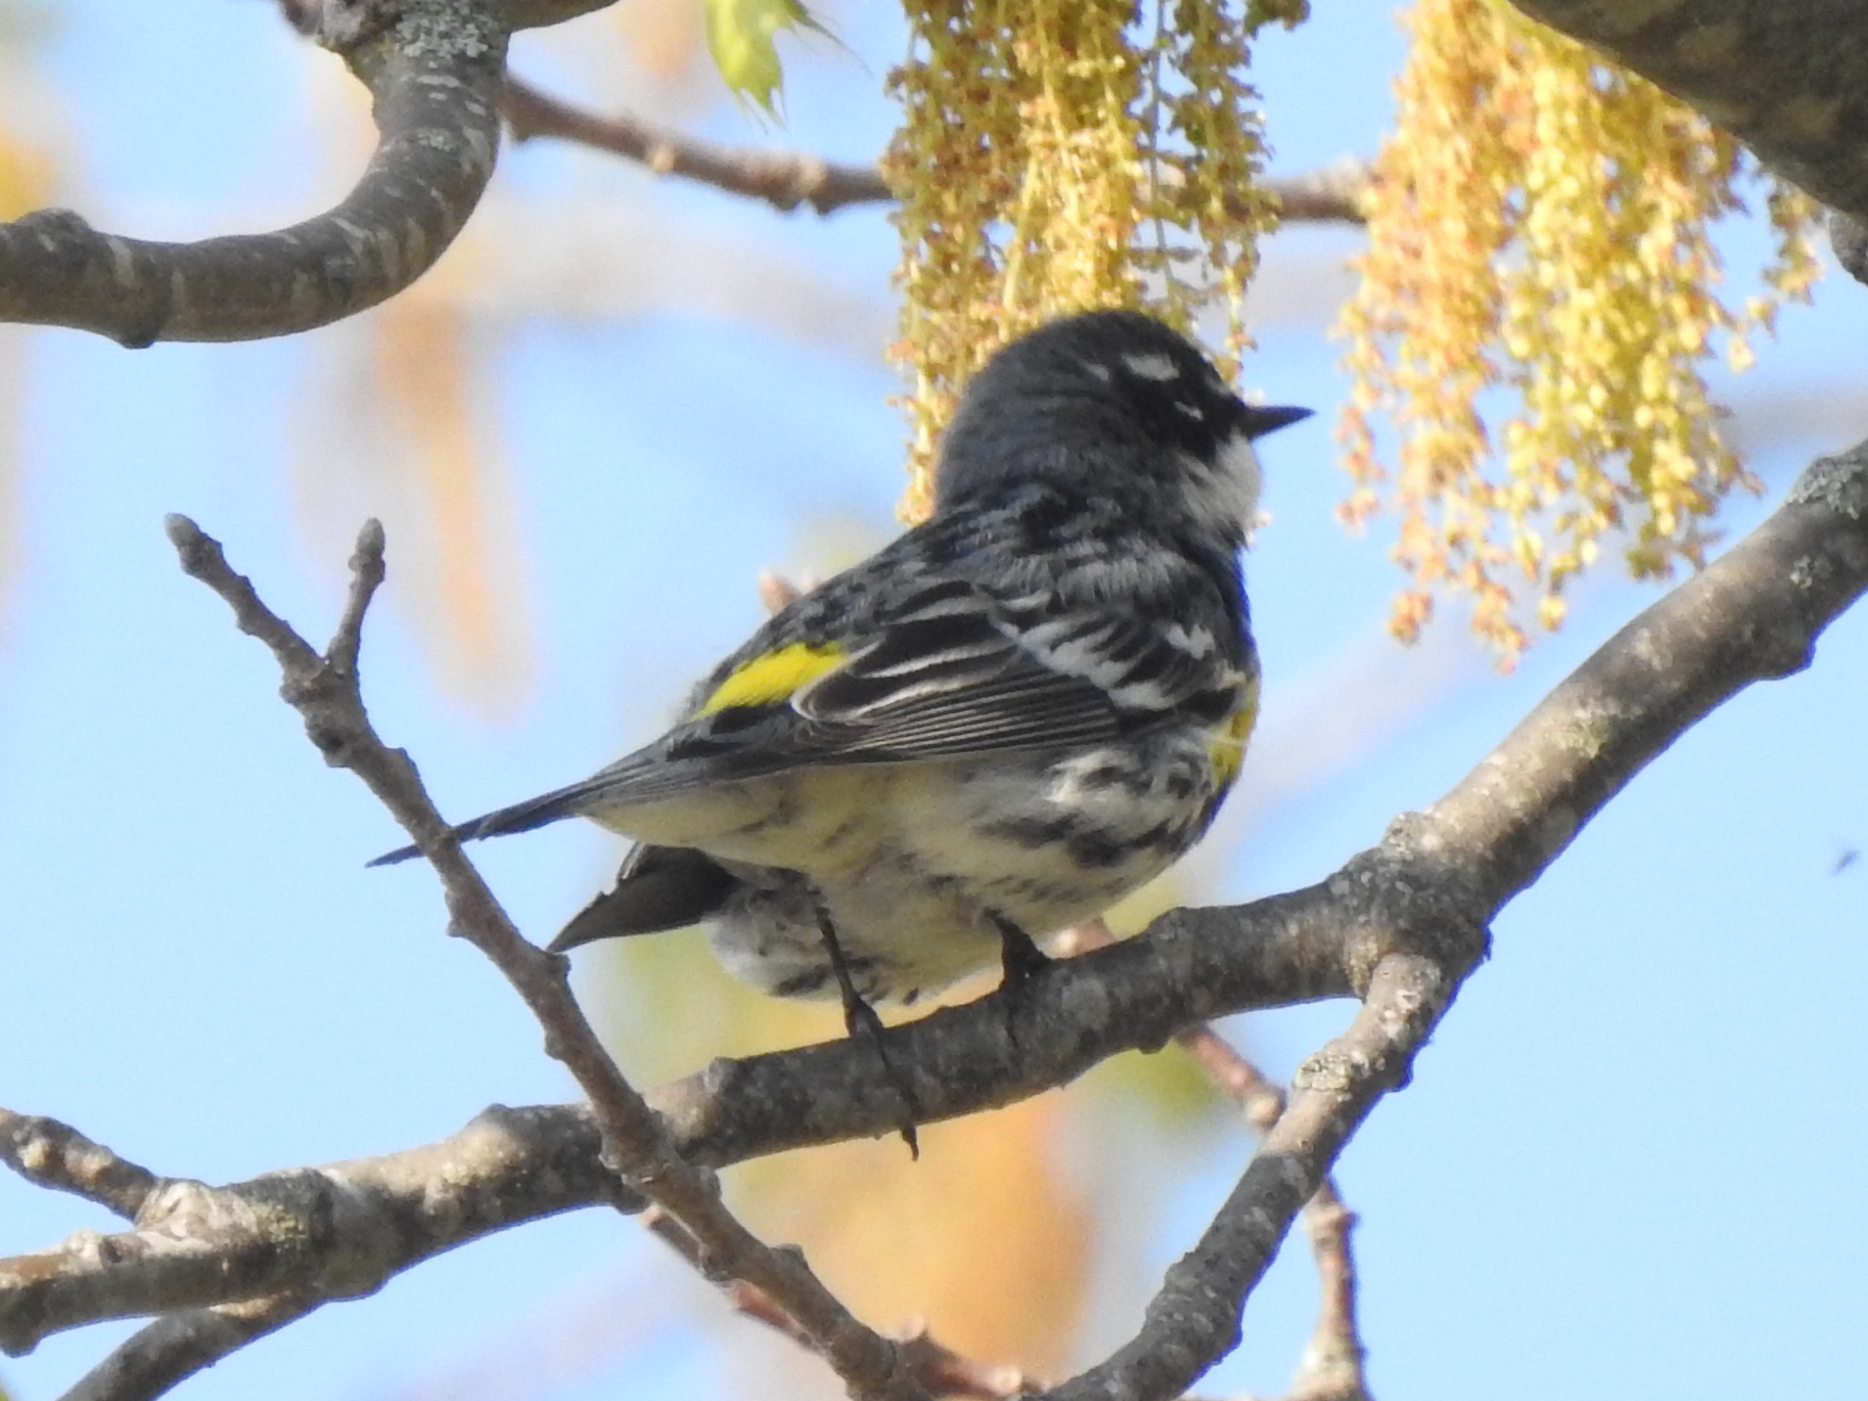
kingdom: Animalia
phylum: Chordata
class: Aves
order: Passeriformes
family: Parulidae
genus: Setophaga
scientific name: Setophaga coronata
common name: Myrtle warbler
